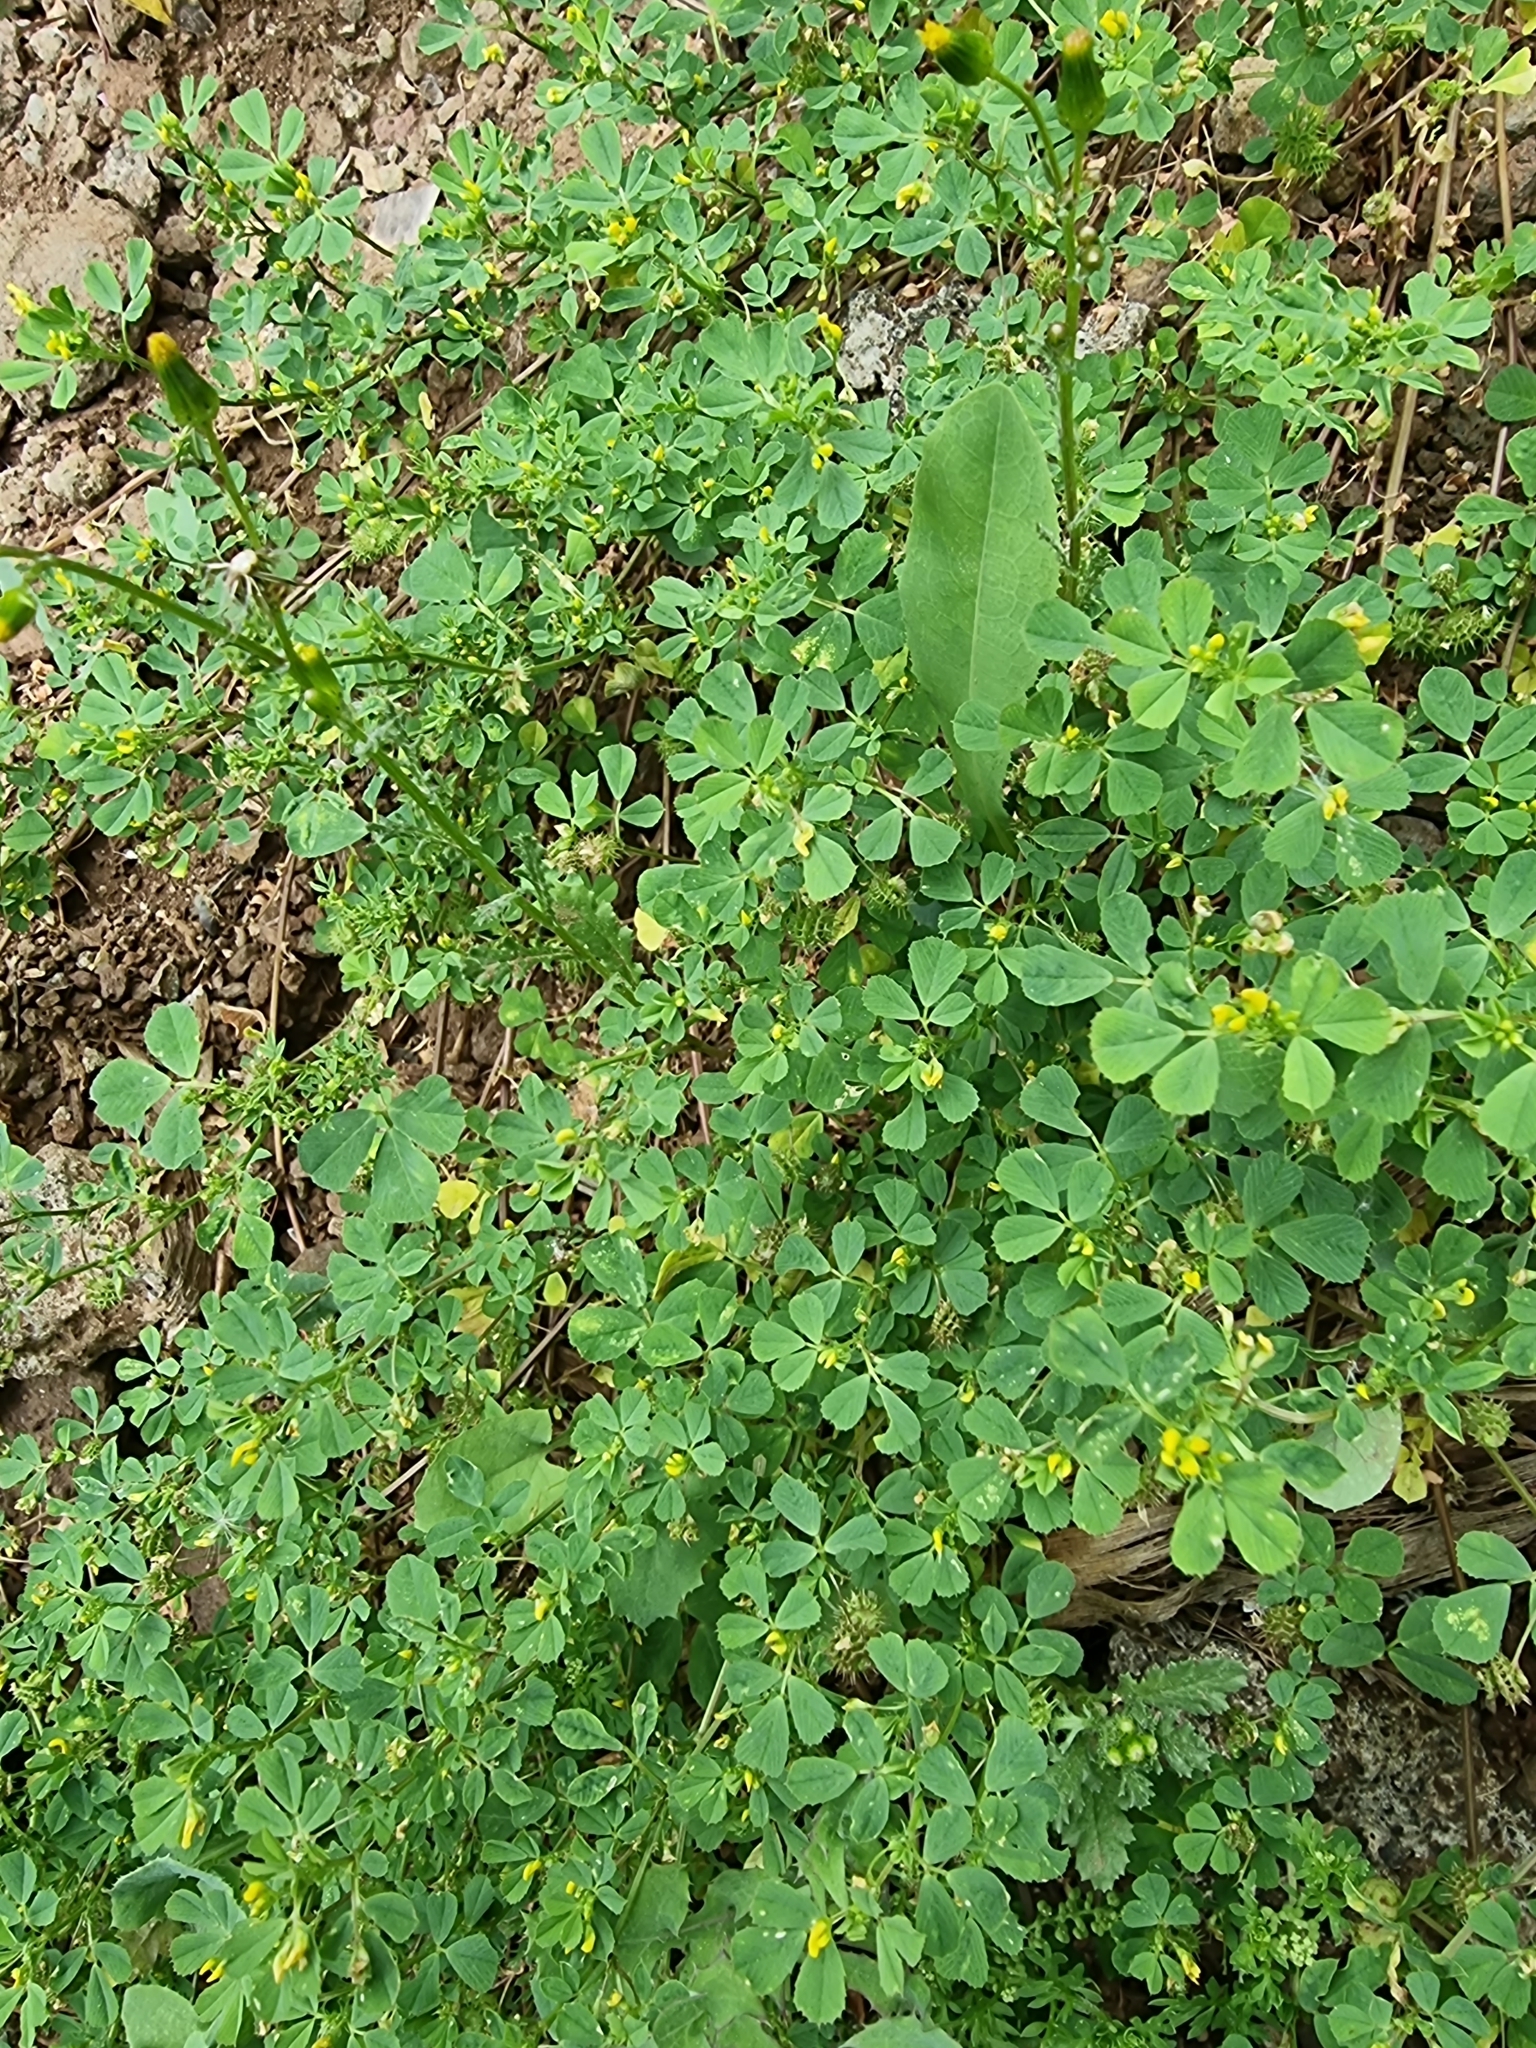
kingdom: Plantae
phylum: Tracheophyta
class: Magnoliopsida
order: Fabales
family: Fabaceae
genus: Medicago
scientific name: Medicago polymorpha
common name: Burclover
